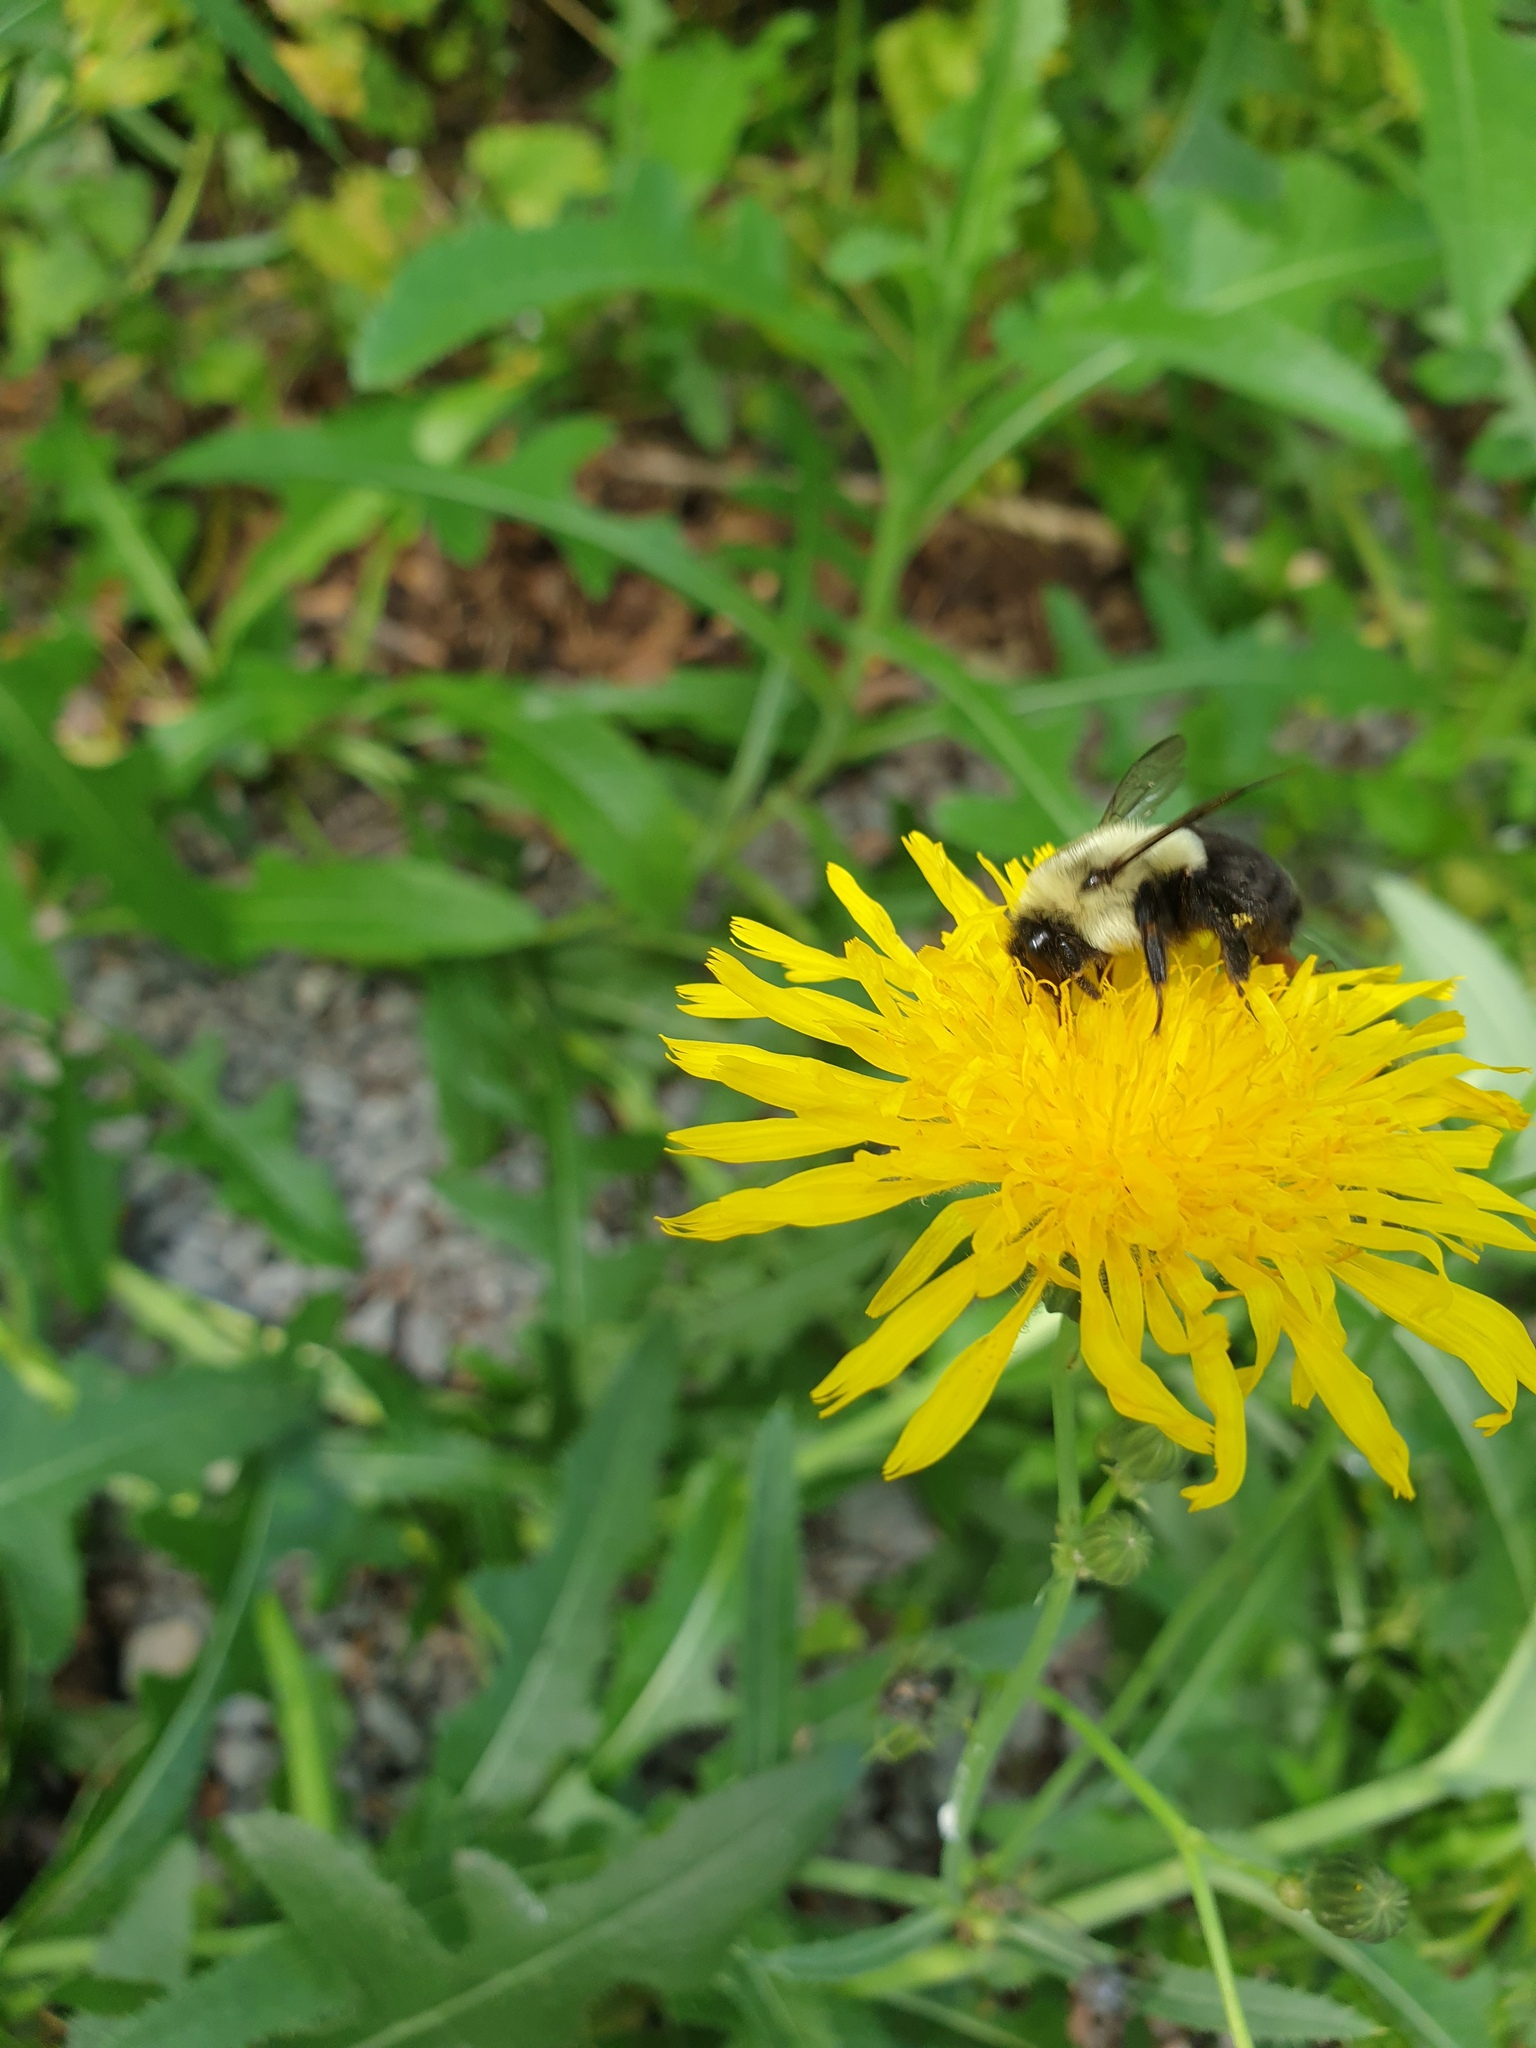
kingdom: Animalia
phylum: Arthropoda
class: Insecta
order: Hymenoptera
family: Apidae
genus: Bombus
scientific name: Bombus impatiens
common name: Common eastern bumble bee
